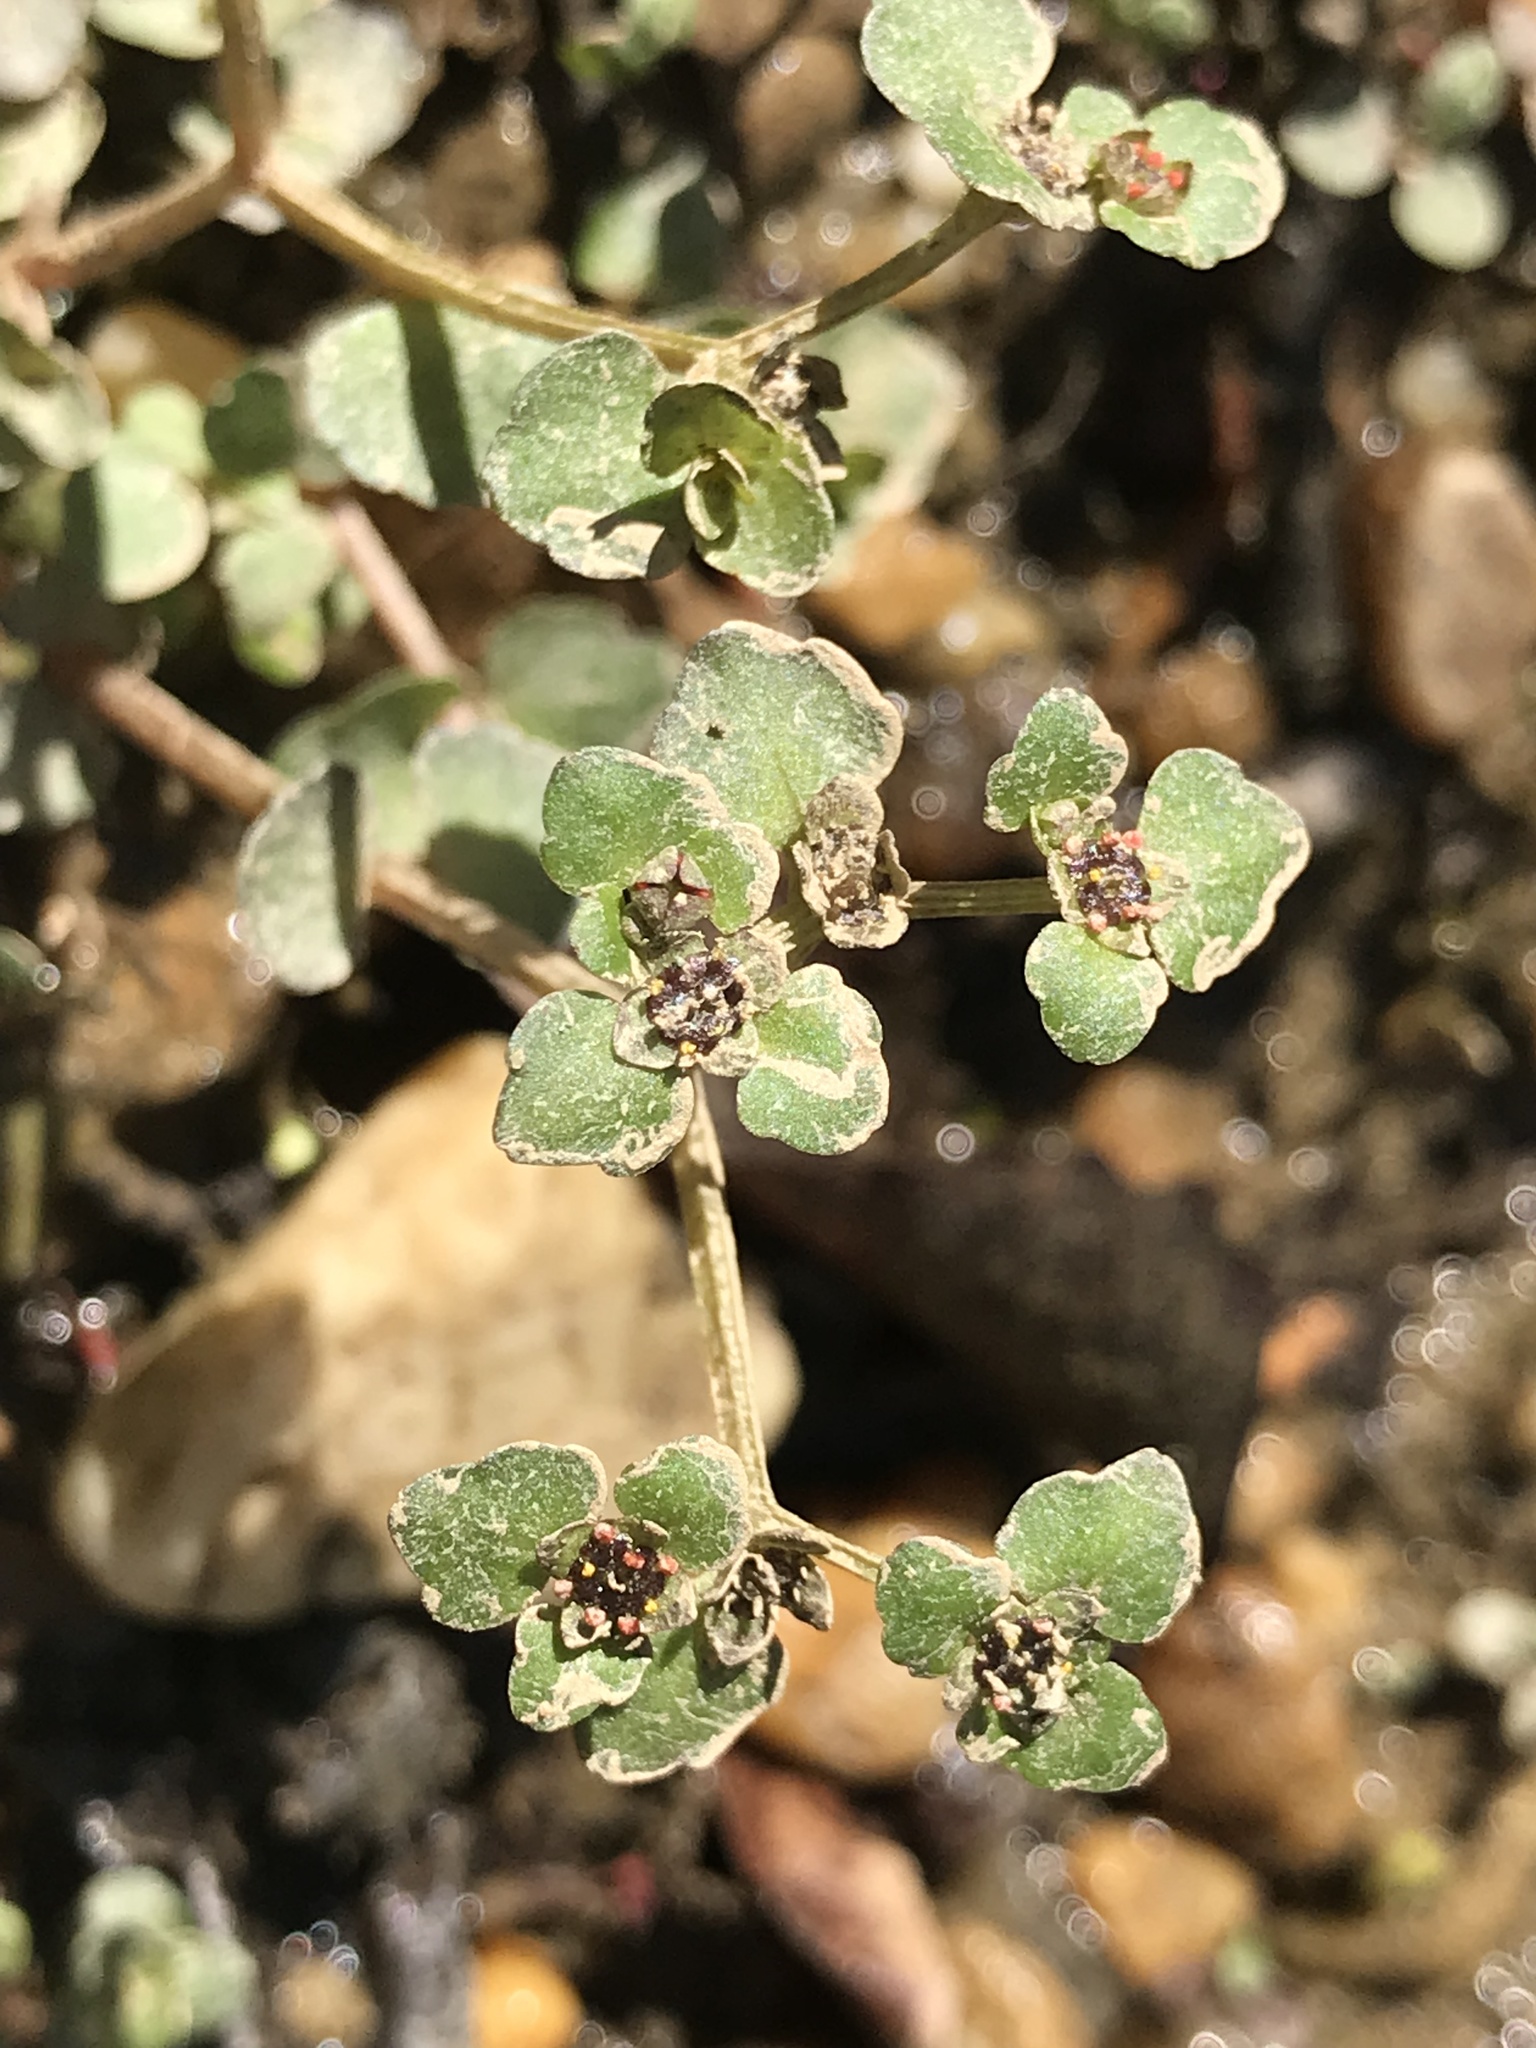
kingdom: Plantae
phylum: Tracheophyta
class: Magnoliopsida
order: Saxifragales
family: Saxifragaceae
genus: Chrysosplenium
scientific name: Chrysosplenium americanum
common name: American golden-saxifrage
